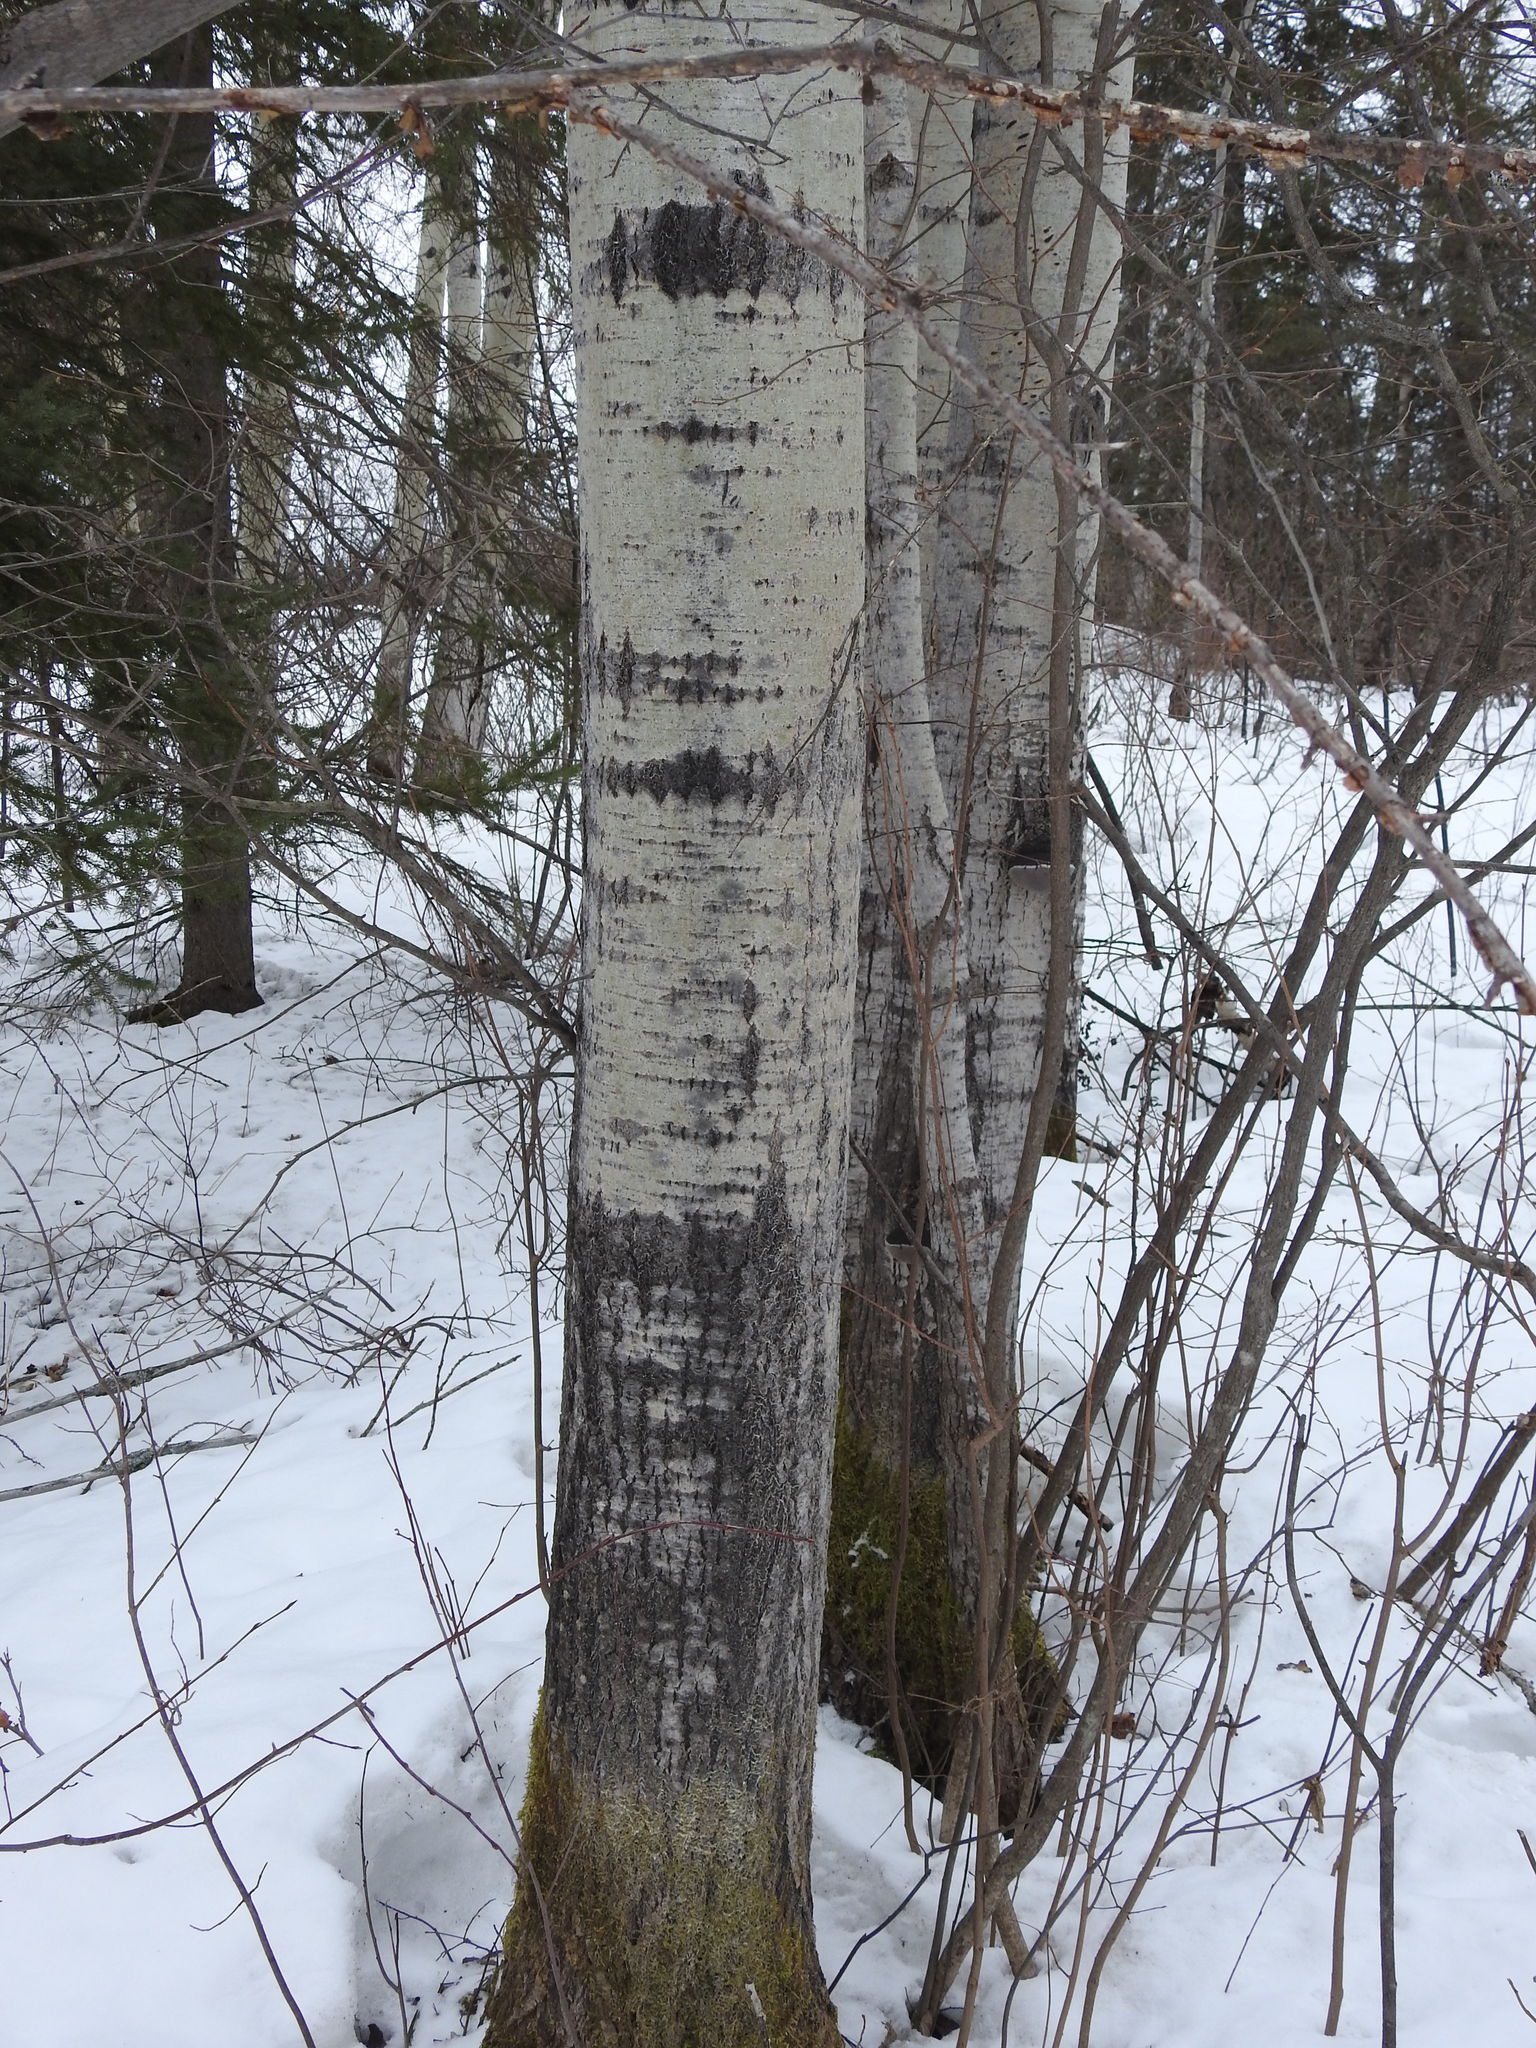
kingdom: Plantae
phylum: Tracheophyta
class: Magnoliopsida
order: Malpighiales
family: Salicaceae
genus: Populus
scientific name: Populus tremuloides
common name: Quaking aspen
